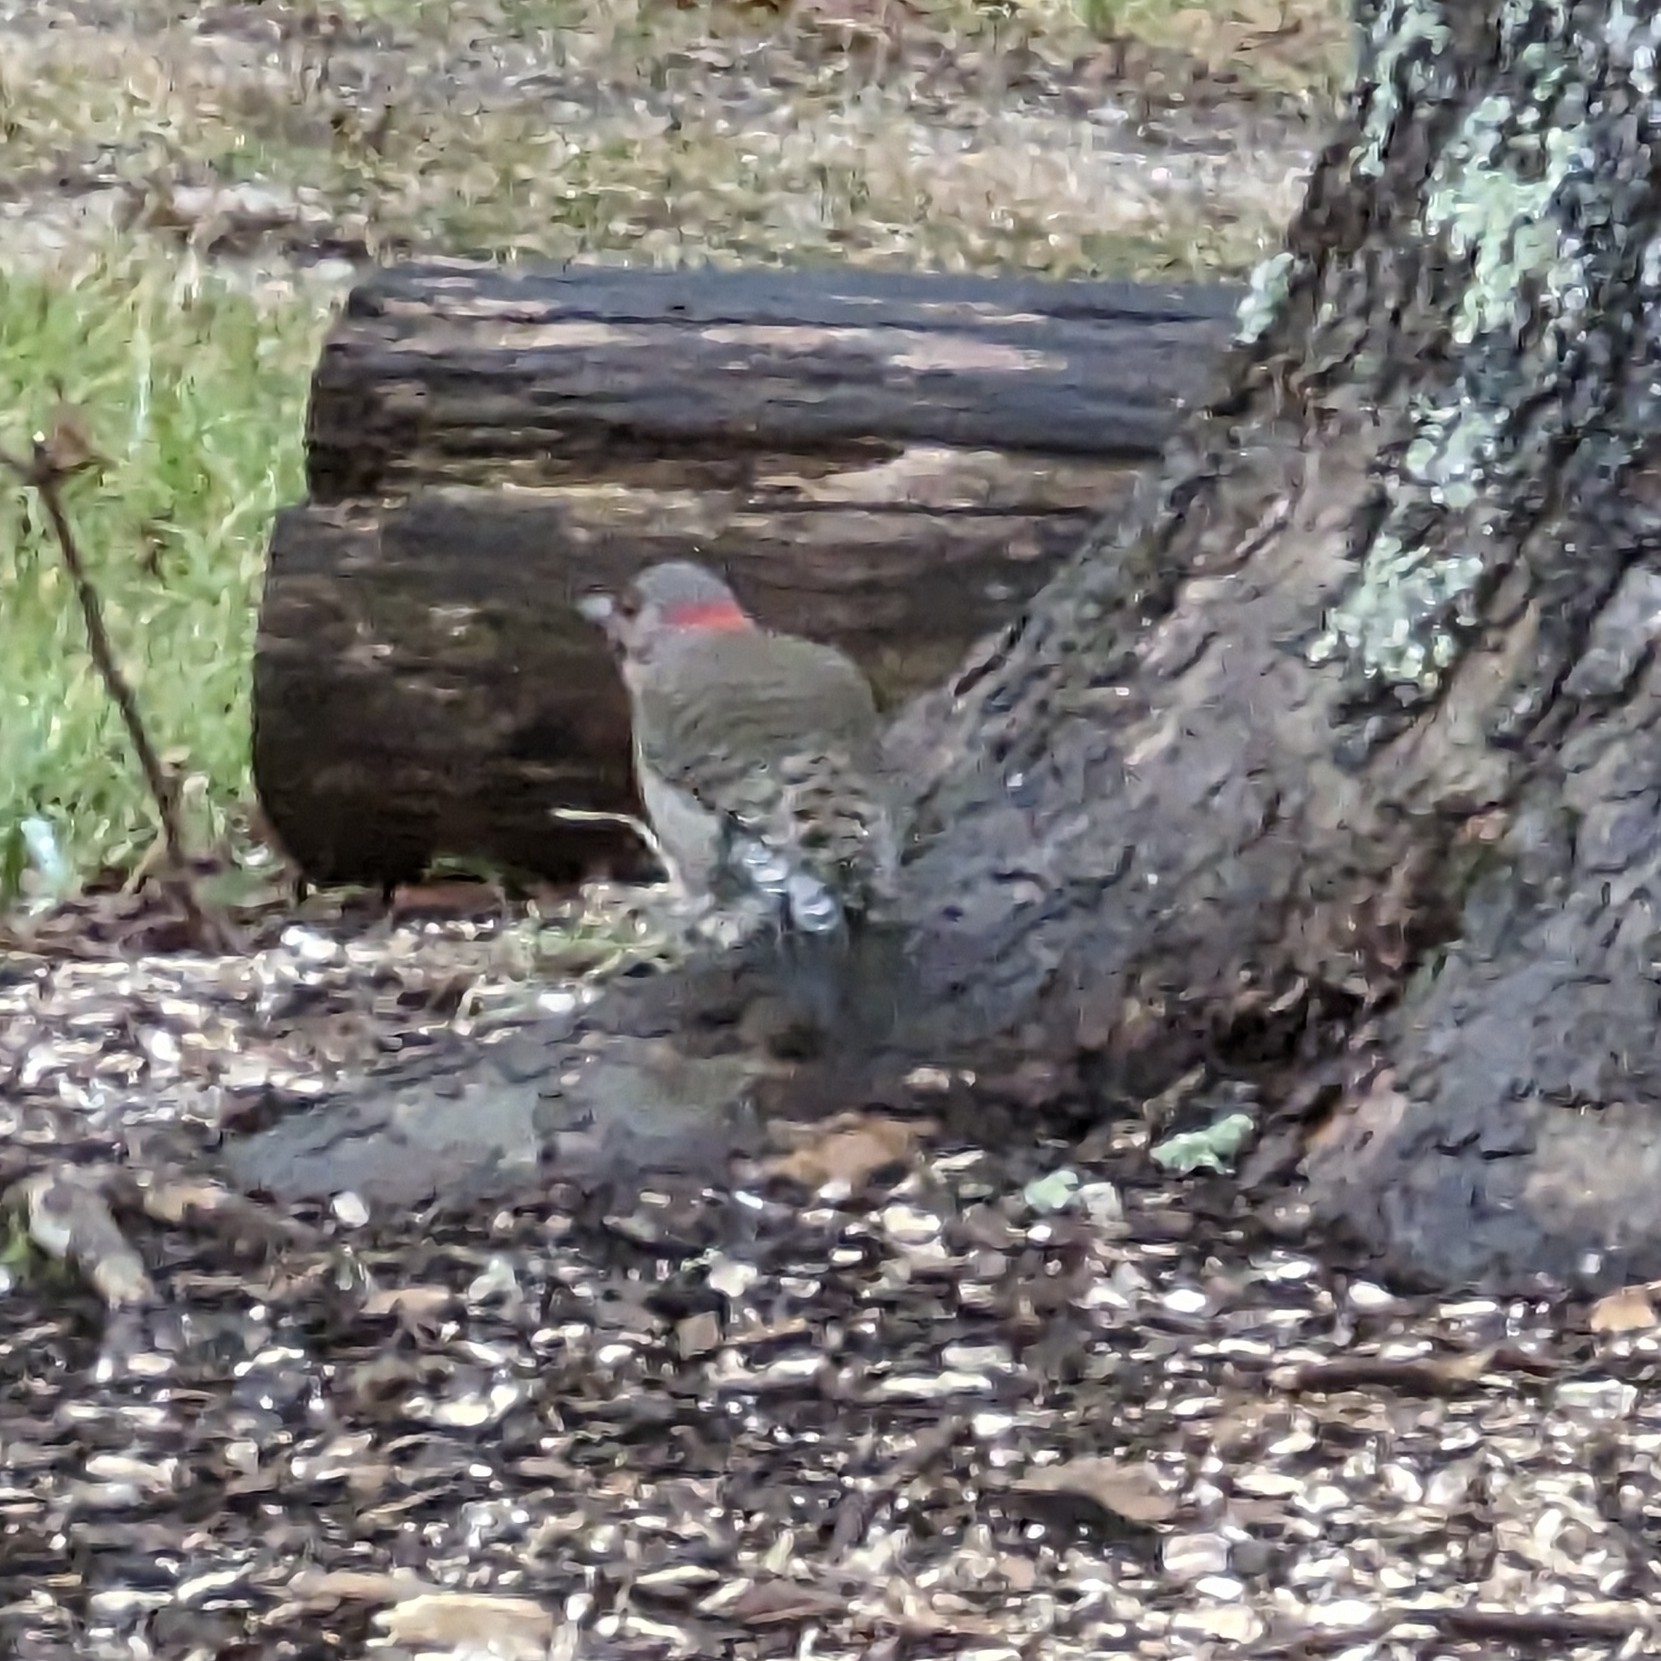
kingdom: Animalia
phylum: Chordata
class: Aves
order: Piciformes
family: Picidae
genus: Colaptes
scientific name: Colaptes auratus
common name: Northern flicker
